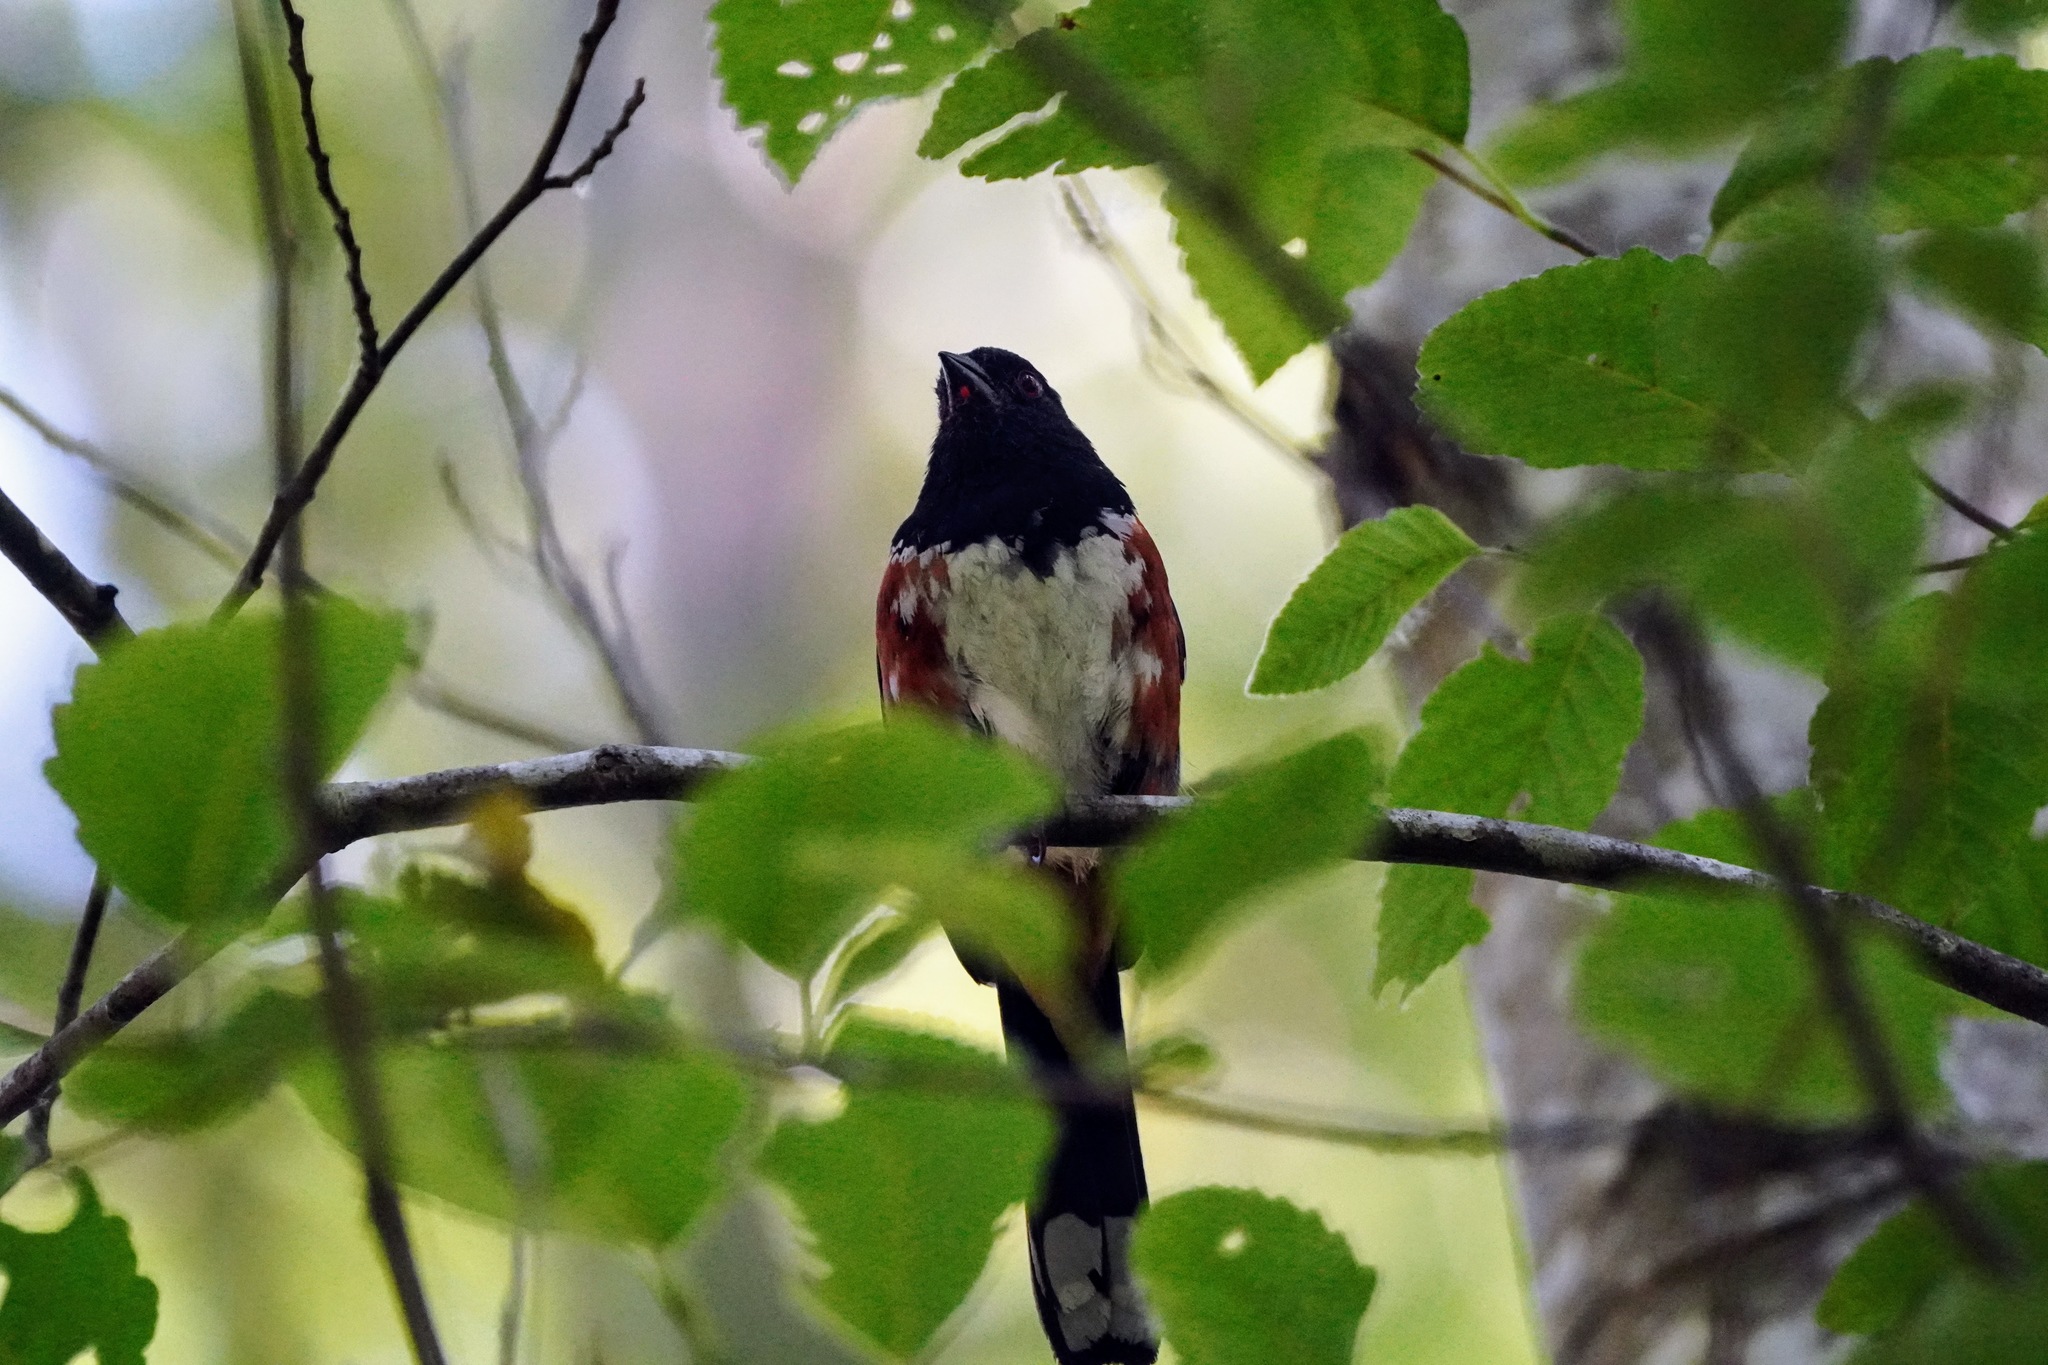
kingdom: Animalia
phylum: Chordata
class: Aves
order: Passeriformes
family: Passerellidae
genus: Pipilo
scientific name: Pipilo maculatus
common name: Spotted towhee
